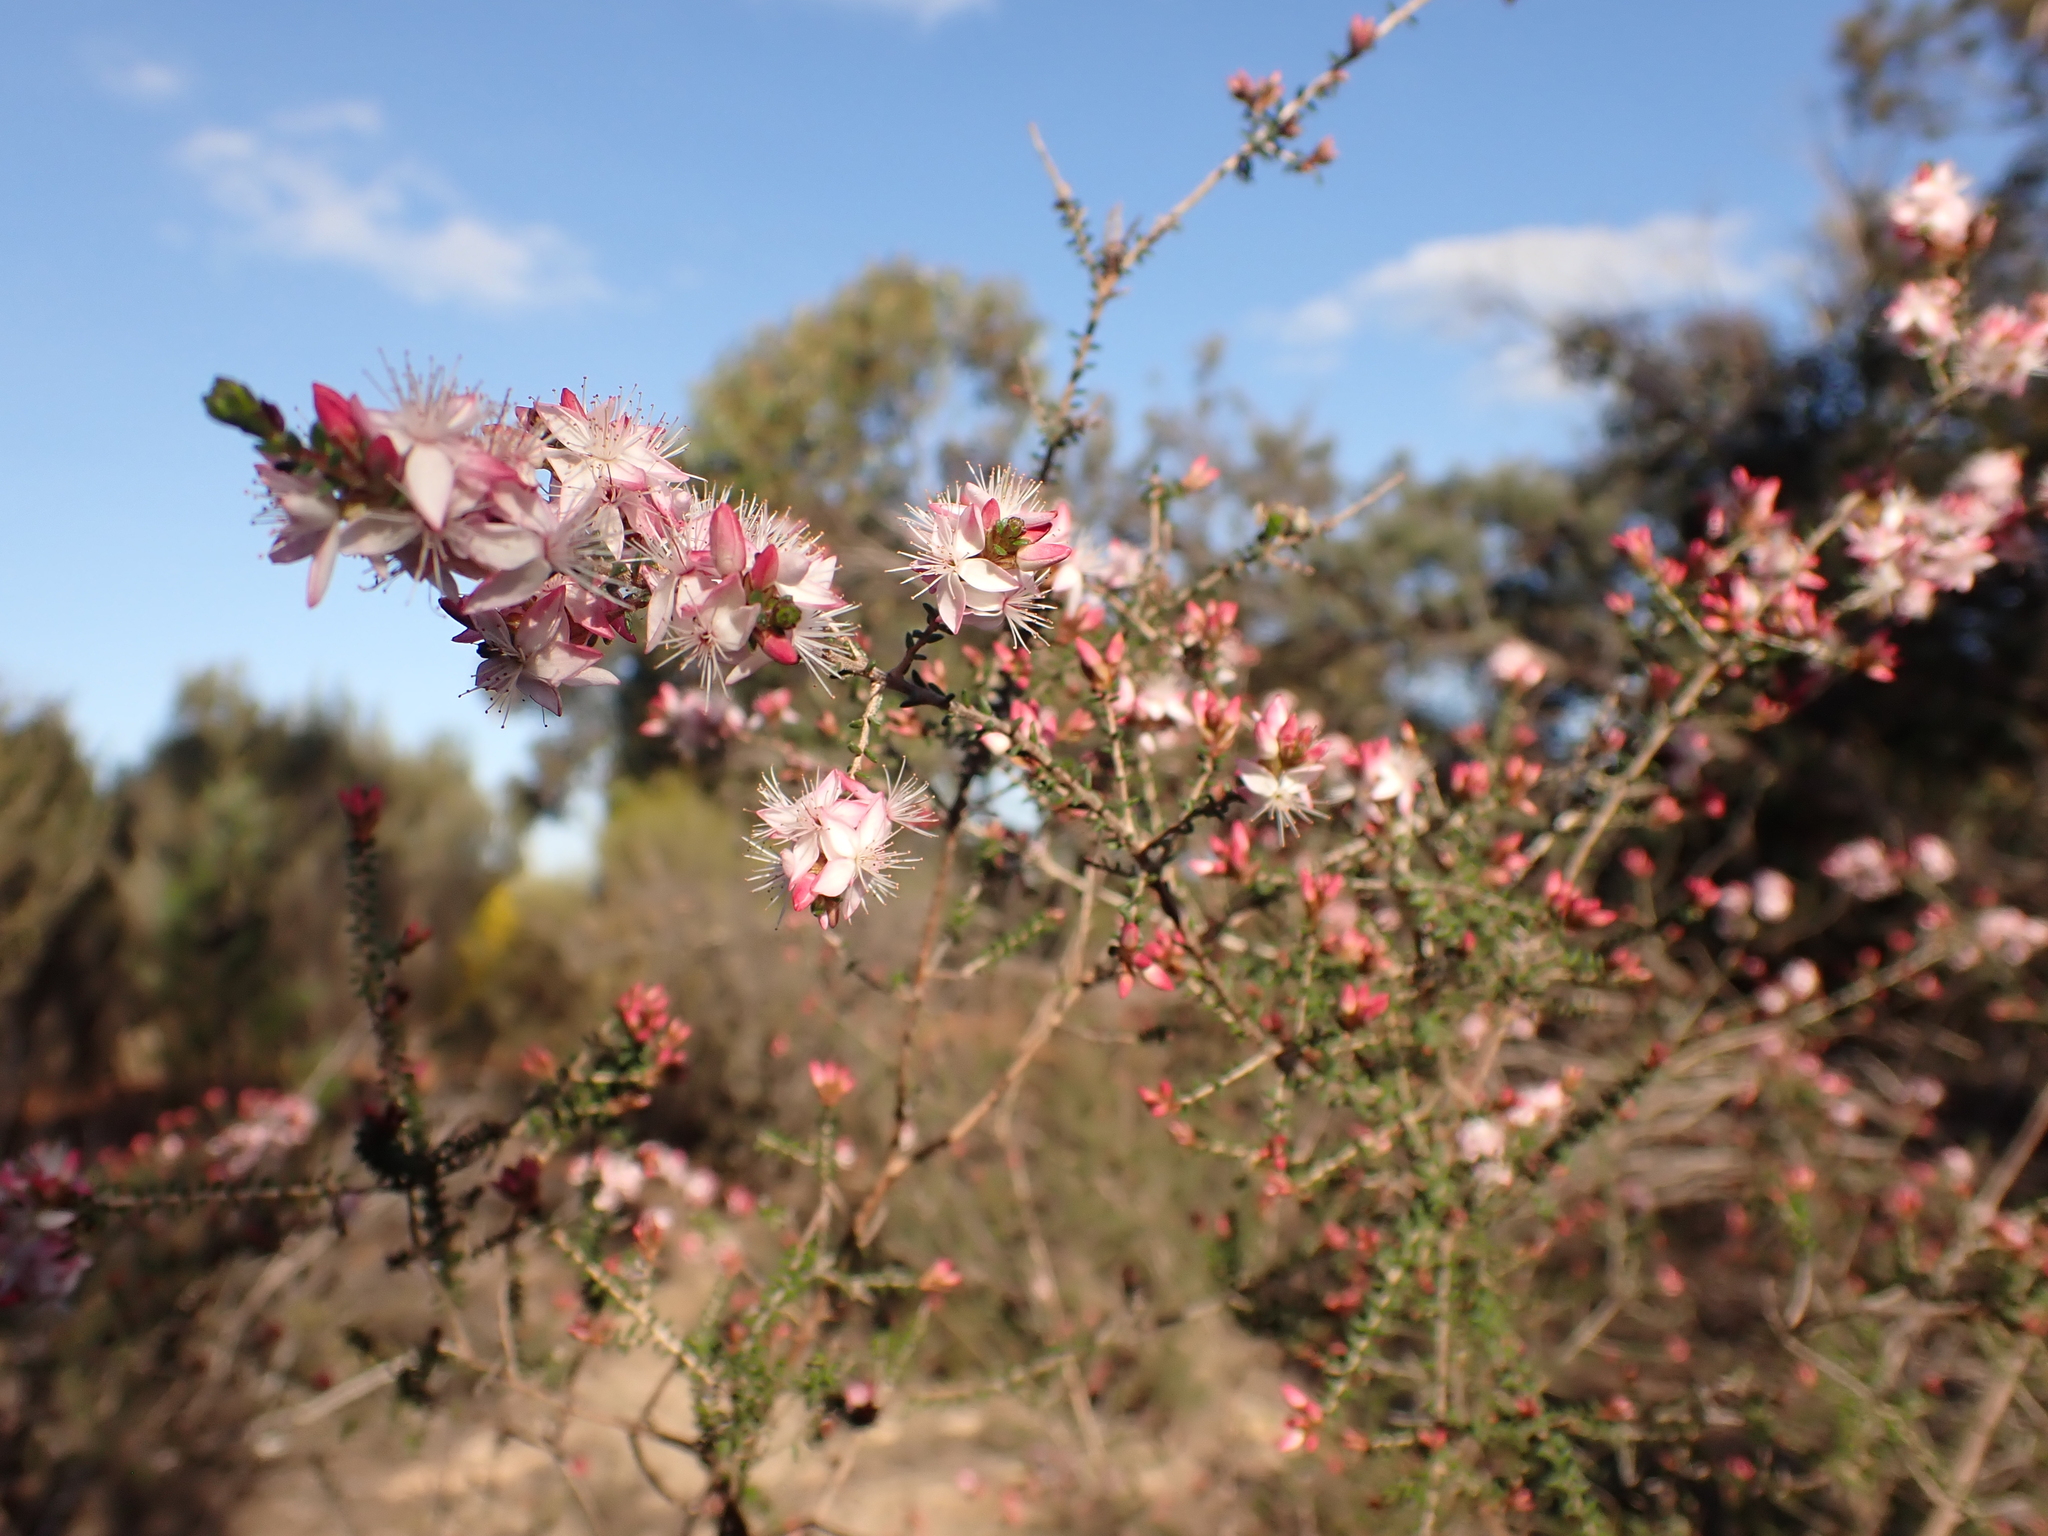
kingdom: Plantae
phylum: Tracheophyta
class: Magnoliopsida
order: Myrtales
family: Myrtaceae
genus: Calytrix
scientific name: Calytrix alpestris
